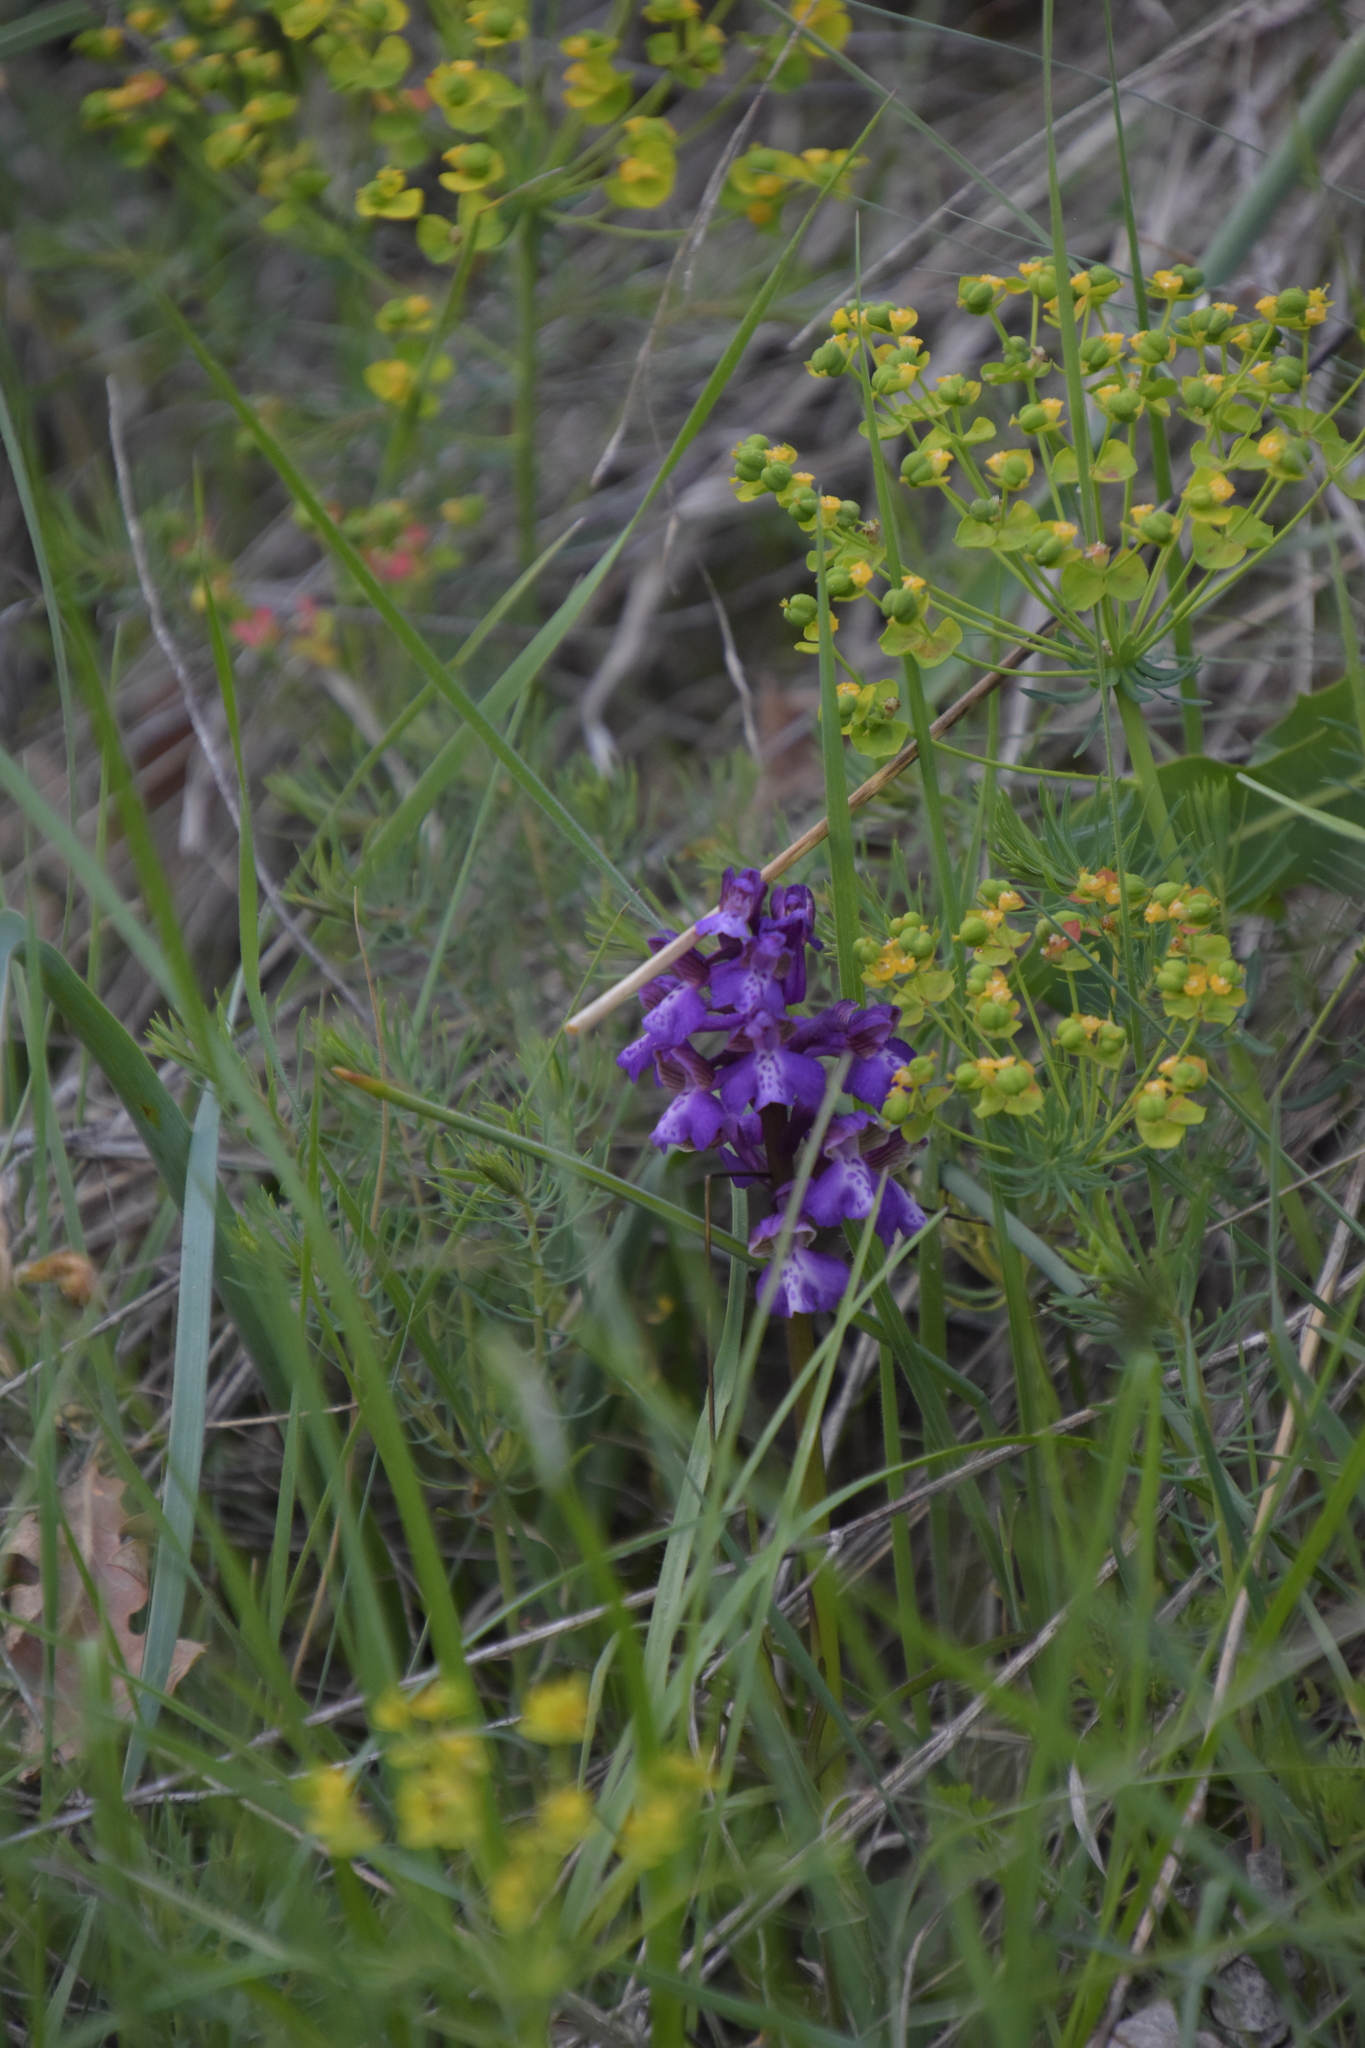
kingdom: Plantae
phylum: Tracheophyta
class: Liliopsida
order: Asparagales
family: Orchidaceae
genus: Anacamptis
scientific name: Anacamptis morio
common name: Green-winged orchid
